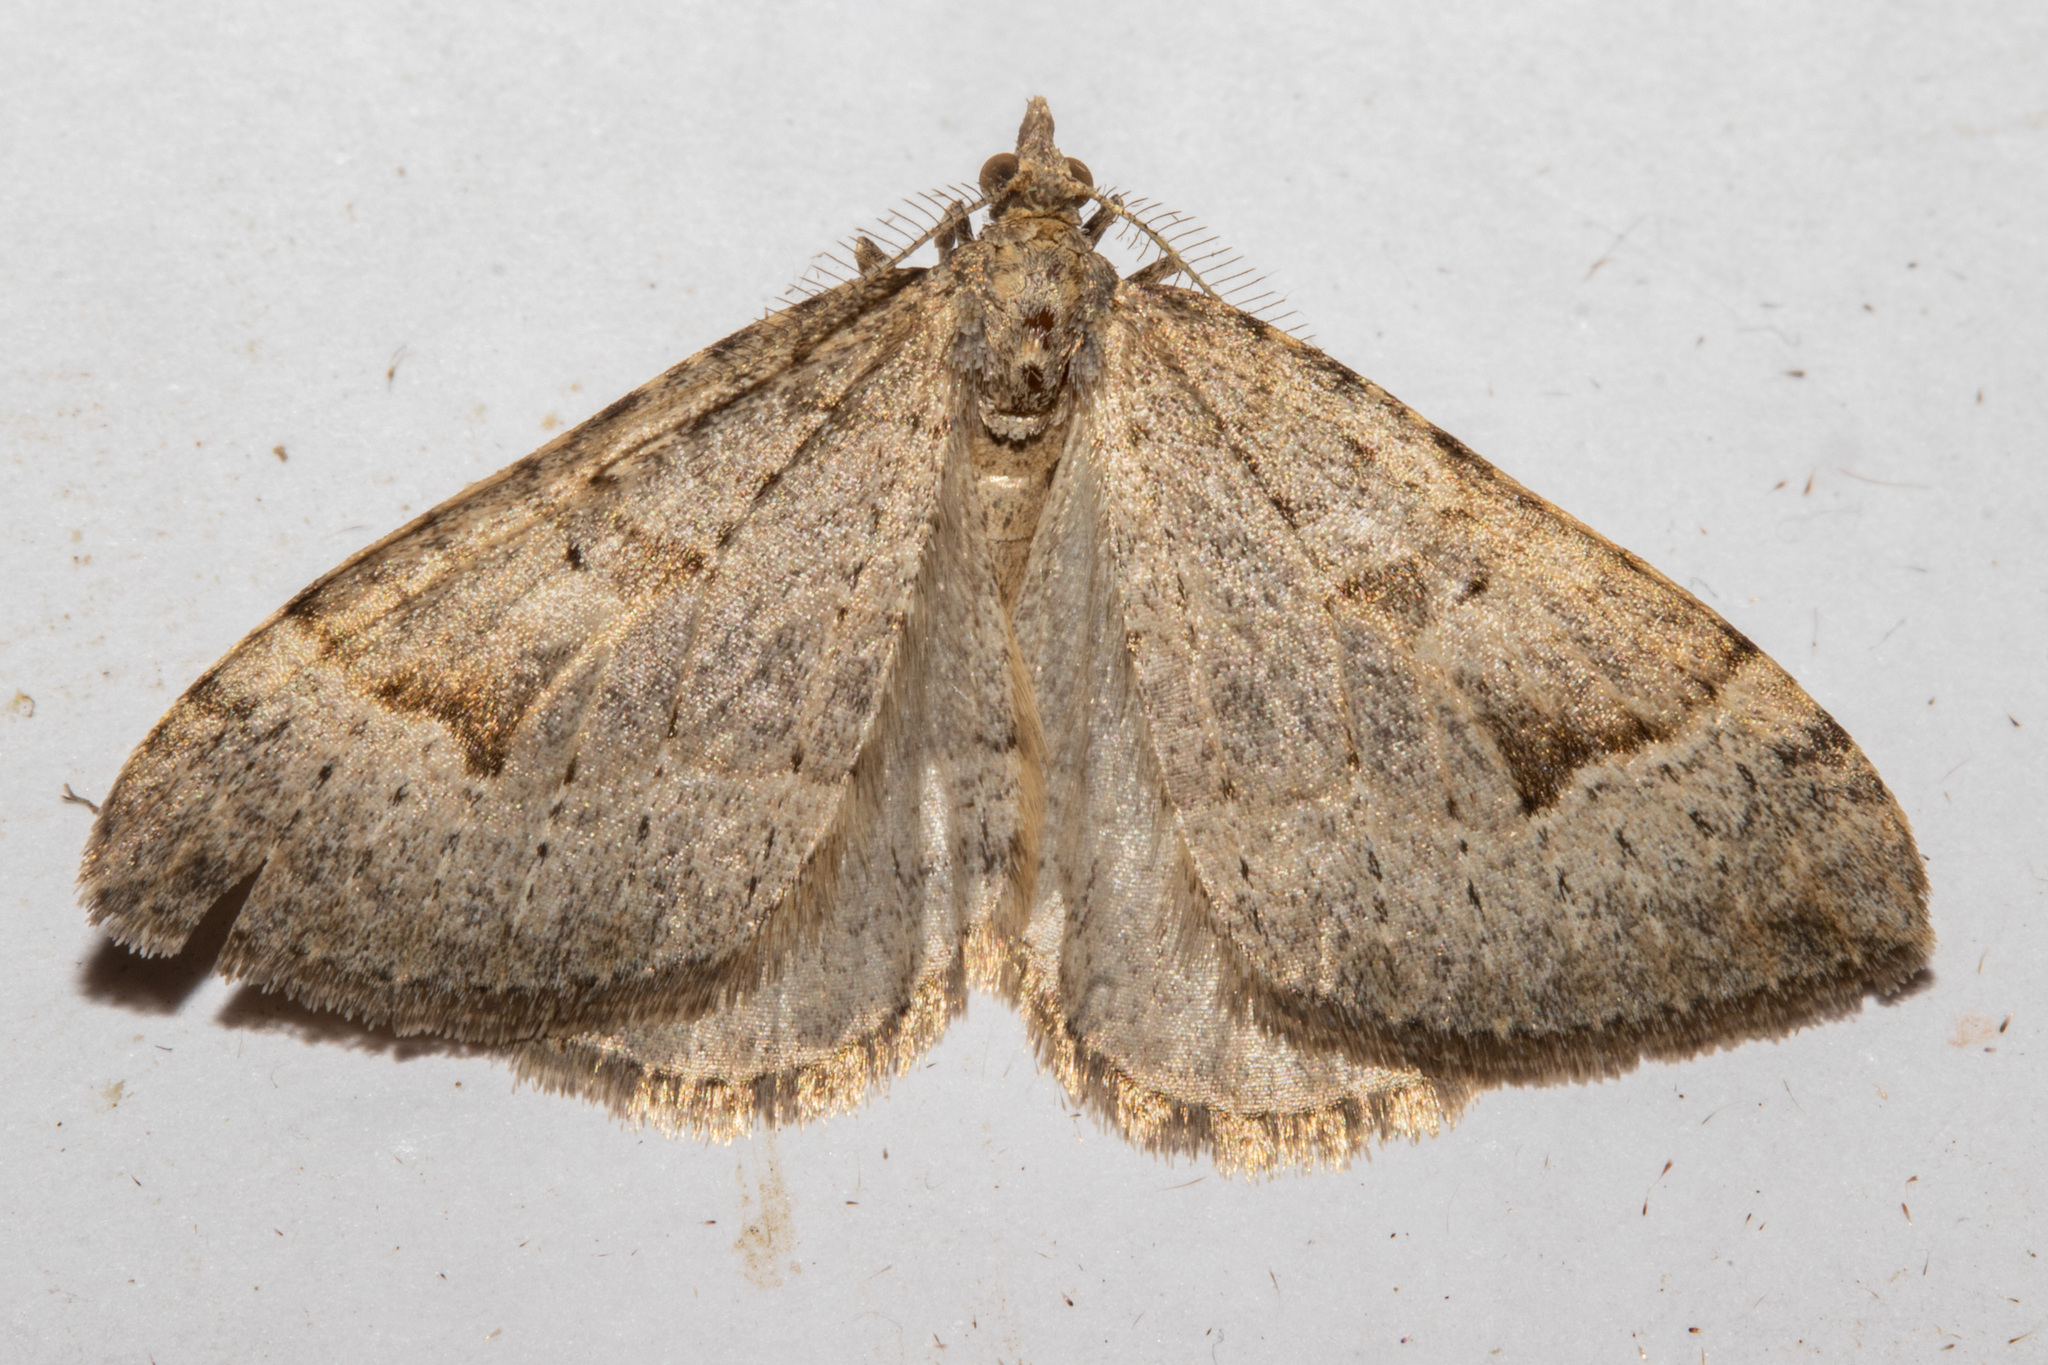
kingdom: Animalia
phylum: Arthropoda
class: Insecta
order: Lepidoptera
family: Geometridae
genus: Epyaxa
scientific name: Epyaxa rosearia
